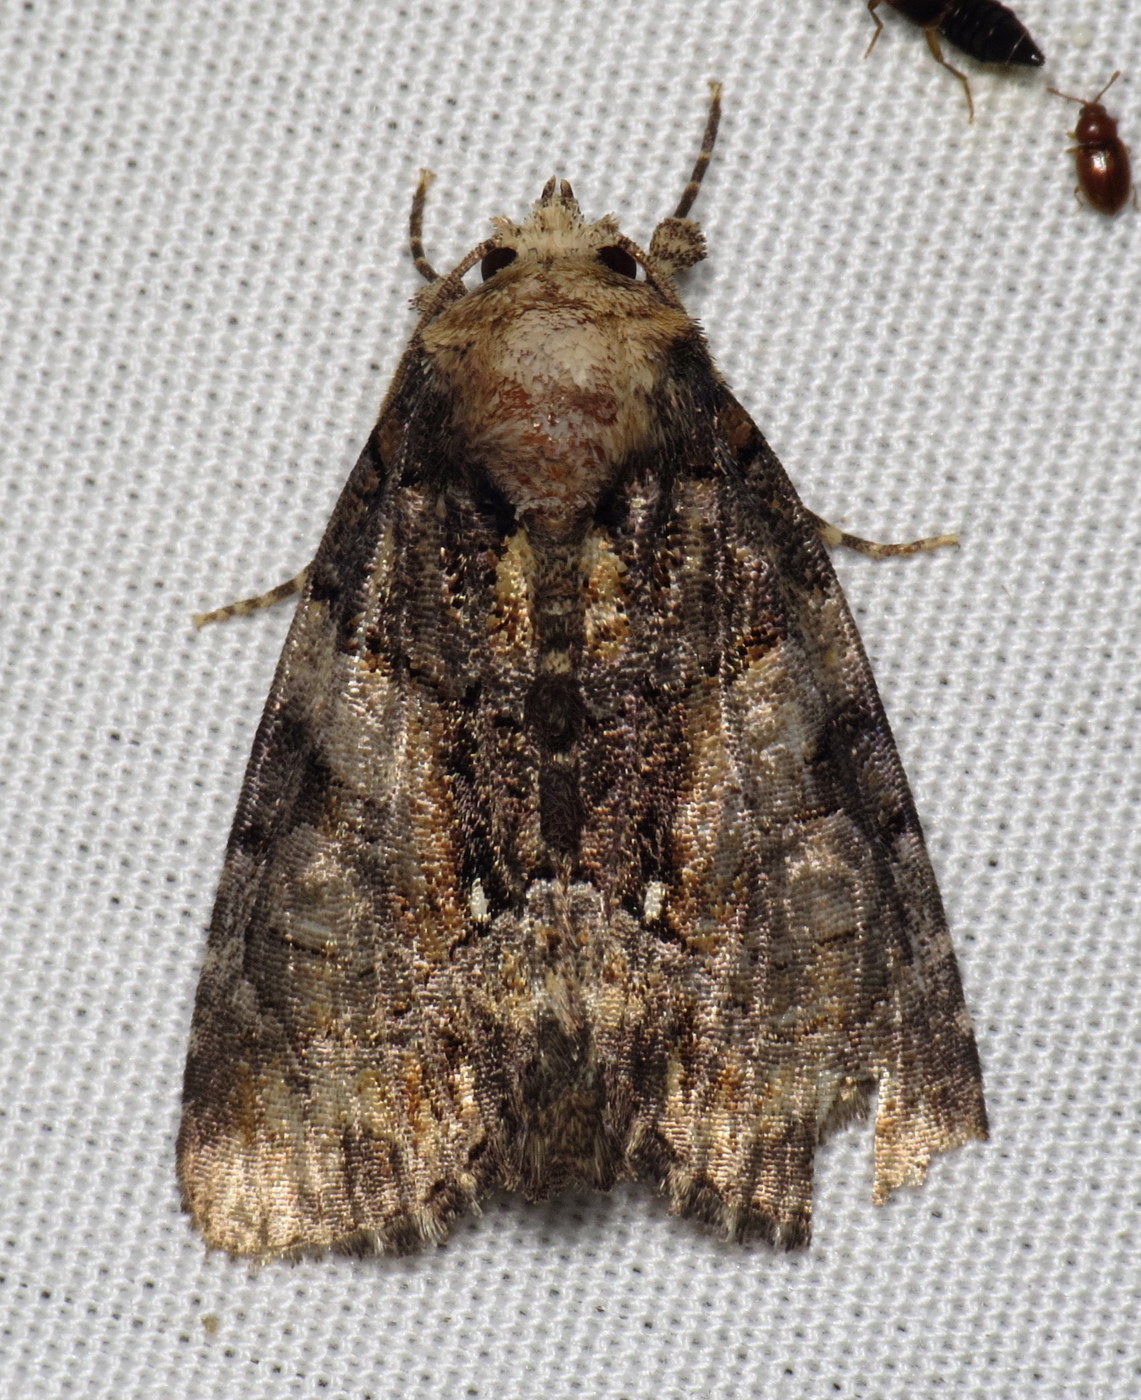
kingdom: Animalia
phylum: Arthropoda
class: Insecta
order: Lepidoptera
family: Noctuidae
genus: Chytonix
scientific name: Chytonix palliatricula
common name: Cloaked marvel
